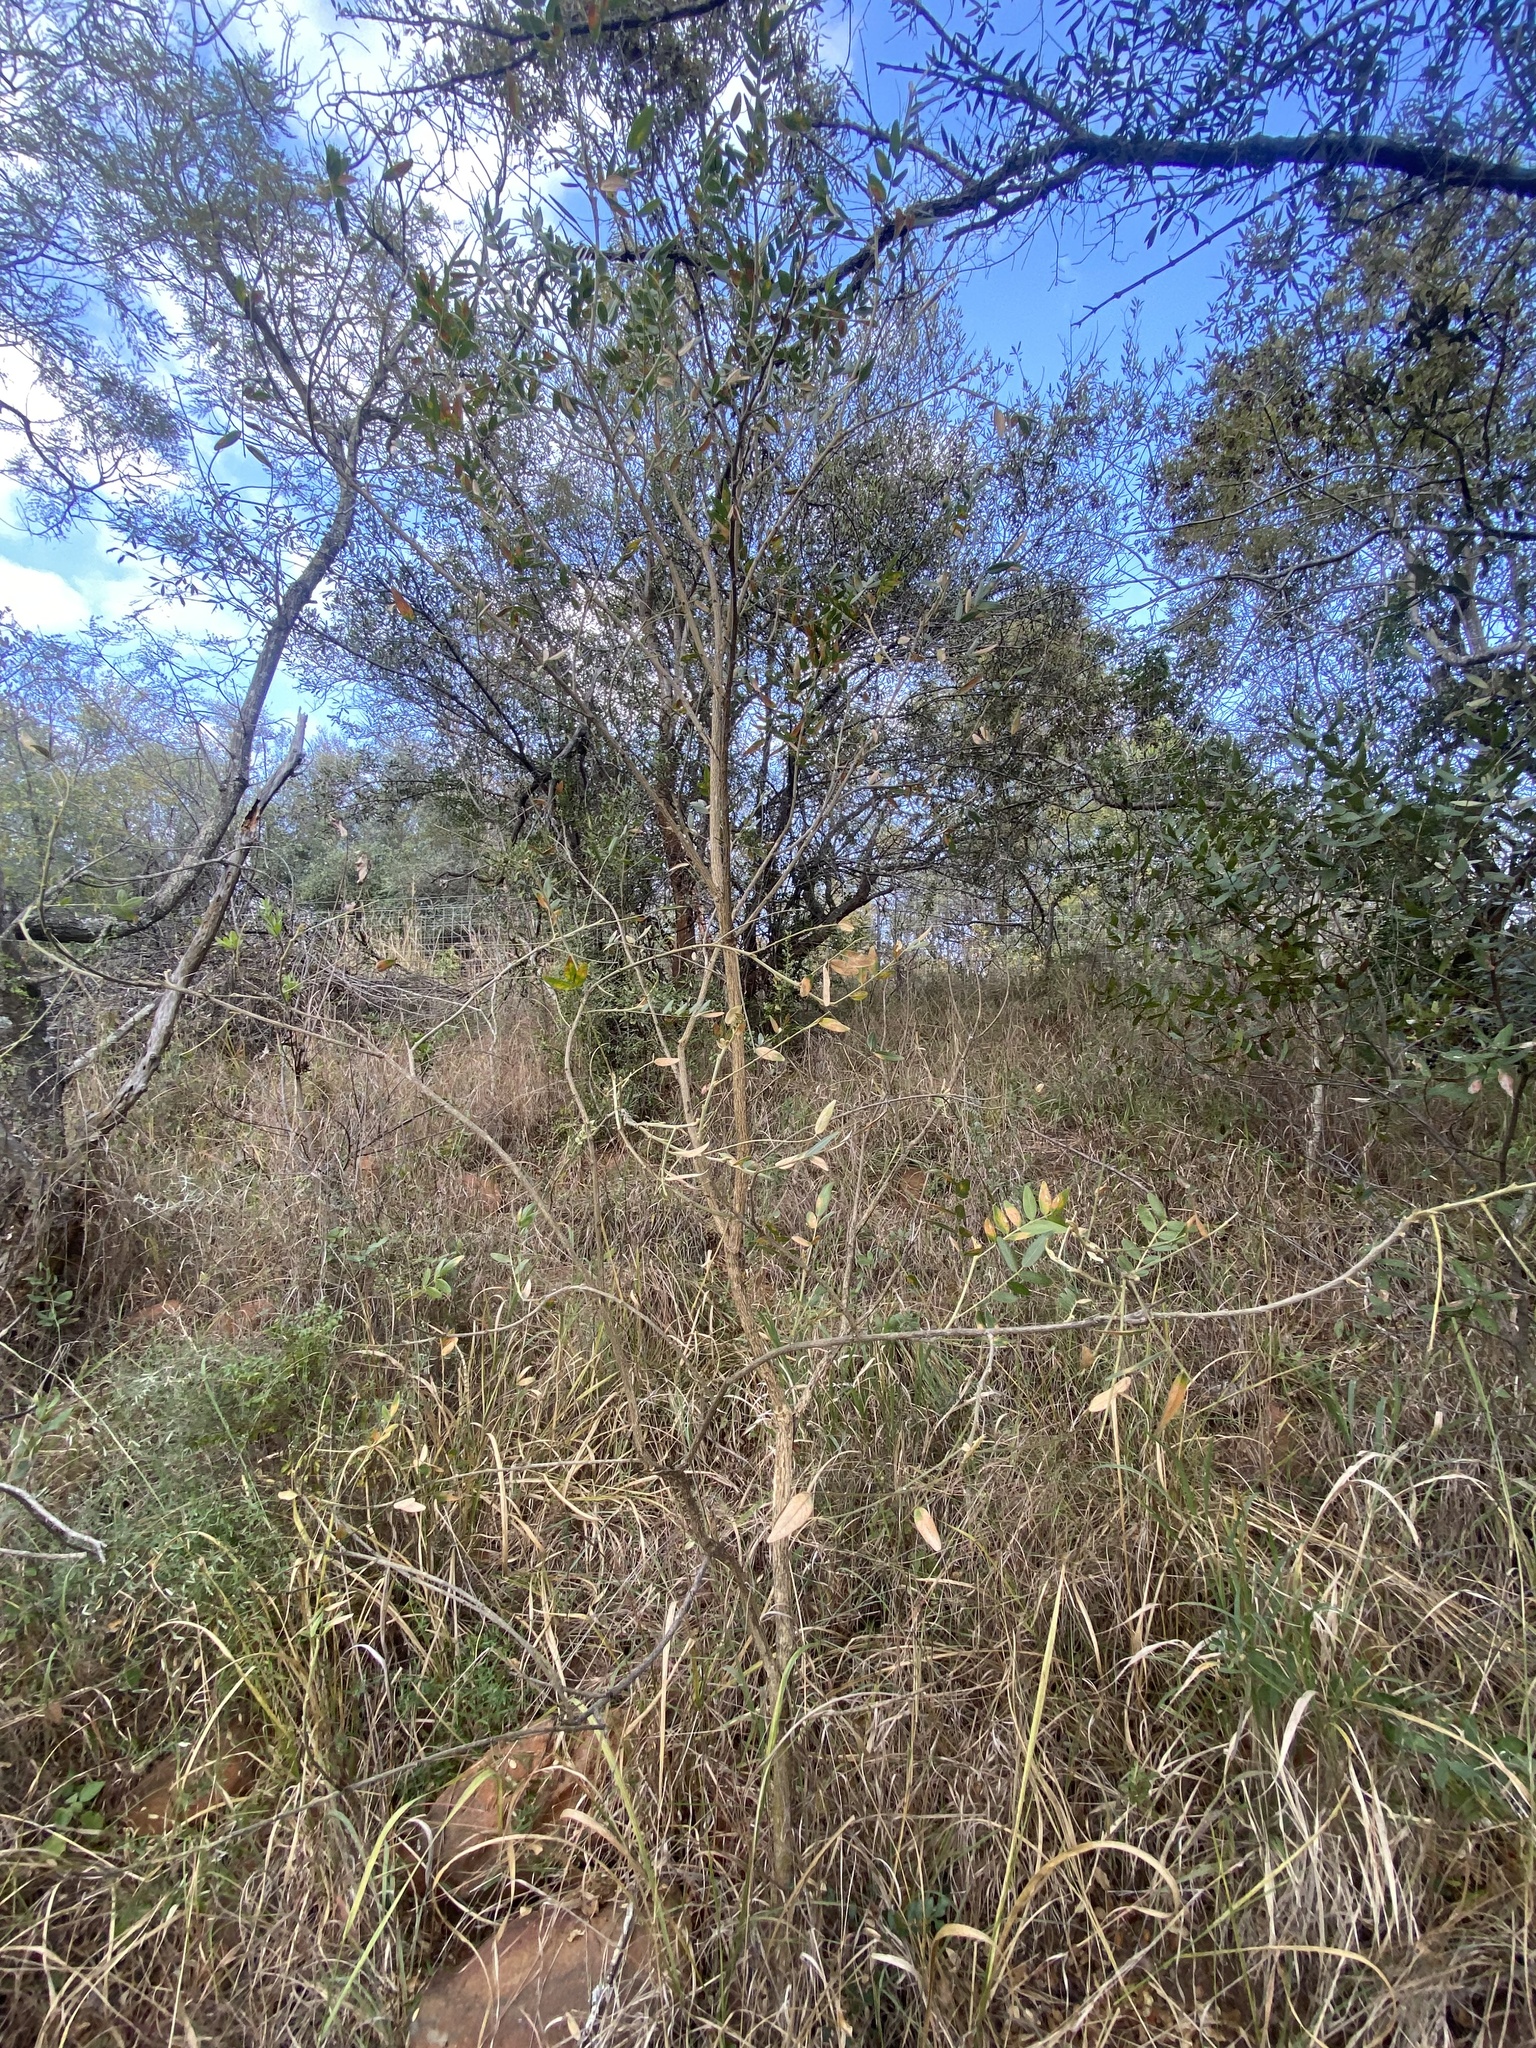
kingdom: Plantae
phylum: Tracheophyta
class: Magnoliopsida
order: Fabales
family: Fabaceae
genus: Mundulea
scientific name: Mundulea sericea
